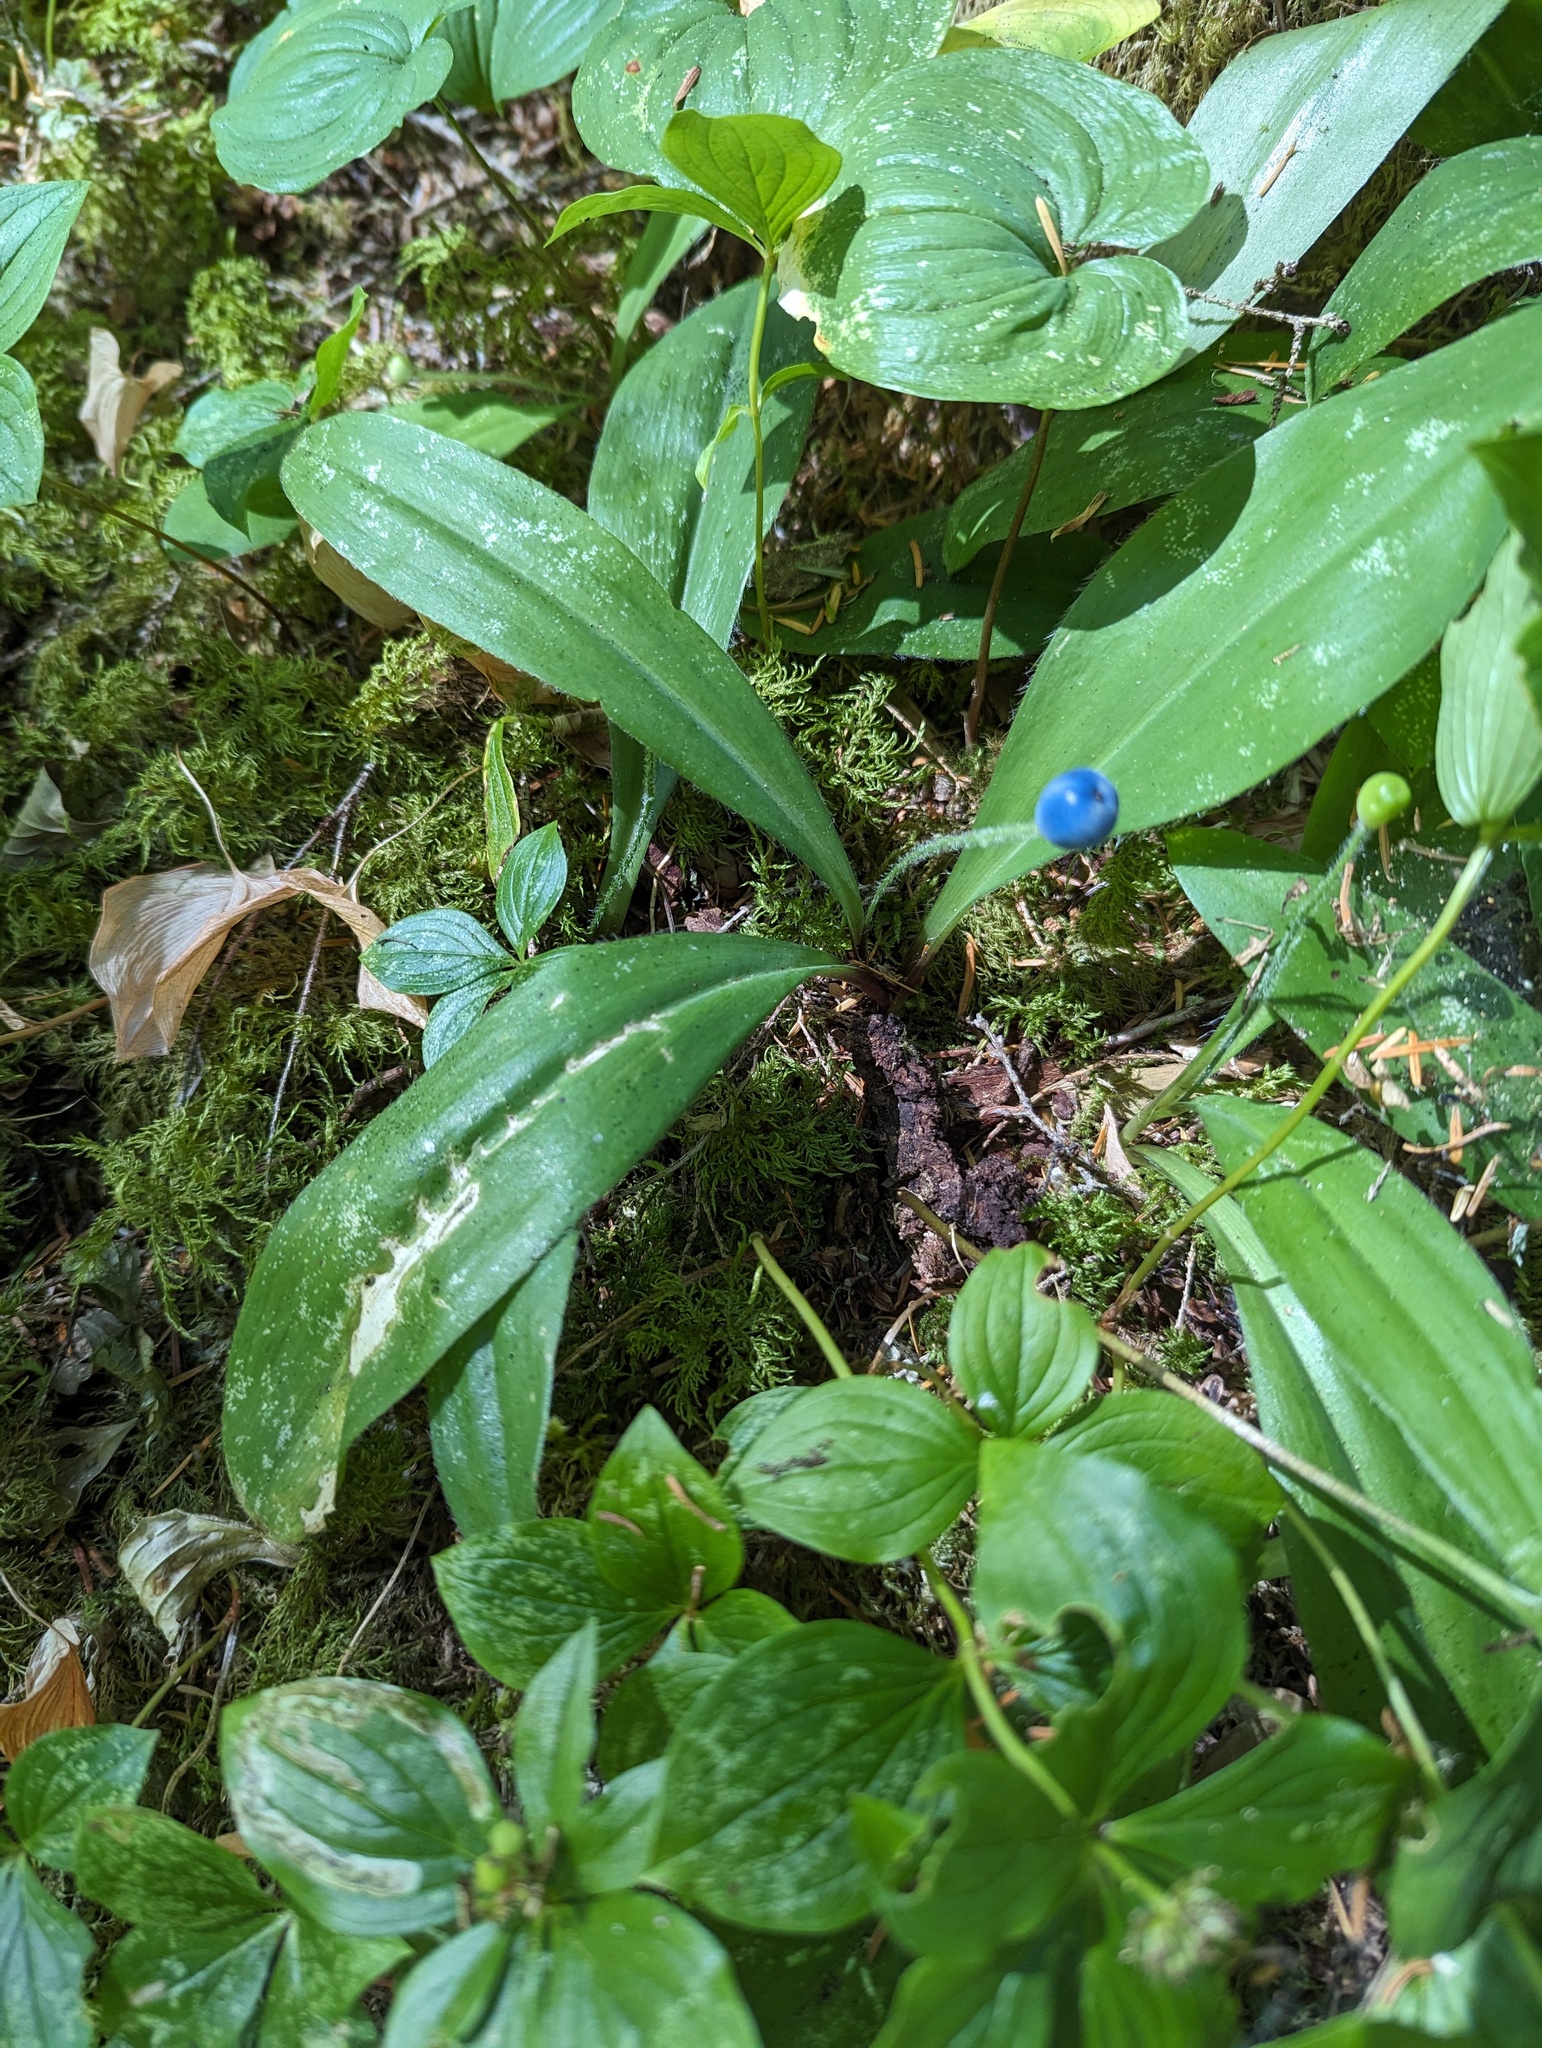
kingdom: Plantae
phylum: Tracheophyta
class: Liliopsida
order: Liliales
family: Liliaceae
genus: Clintonia
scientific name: Clintonia uniflora
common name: Queen's cup
